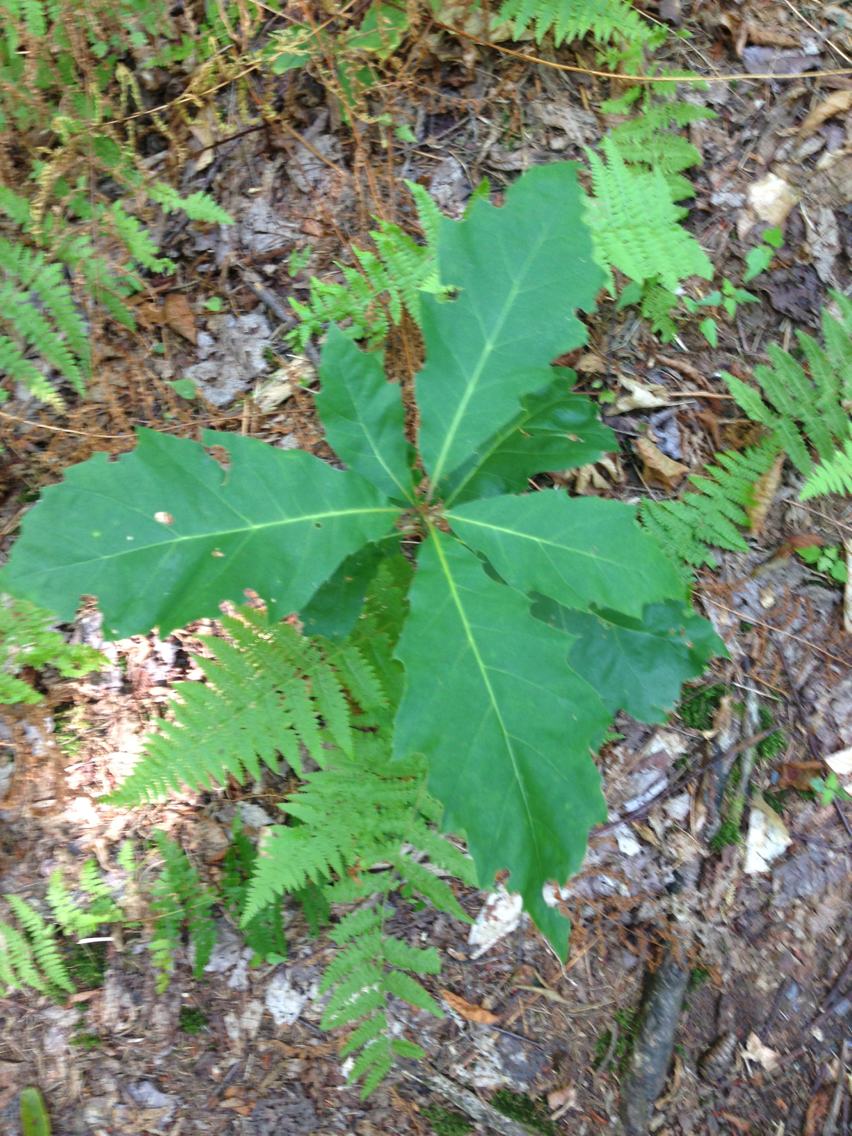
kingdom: Plantae
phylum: Tracheophyta
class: Magnoliopsida
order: Fagales
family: Fagaceae
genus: Quercus
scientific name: Quercus rubra
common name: Red oak
